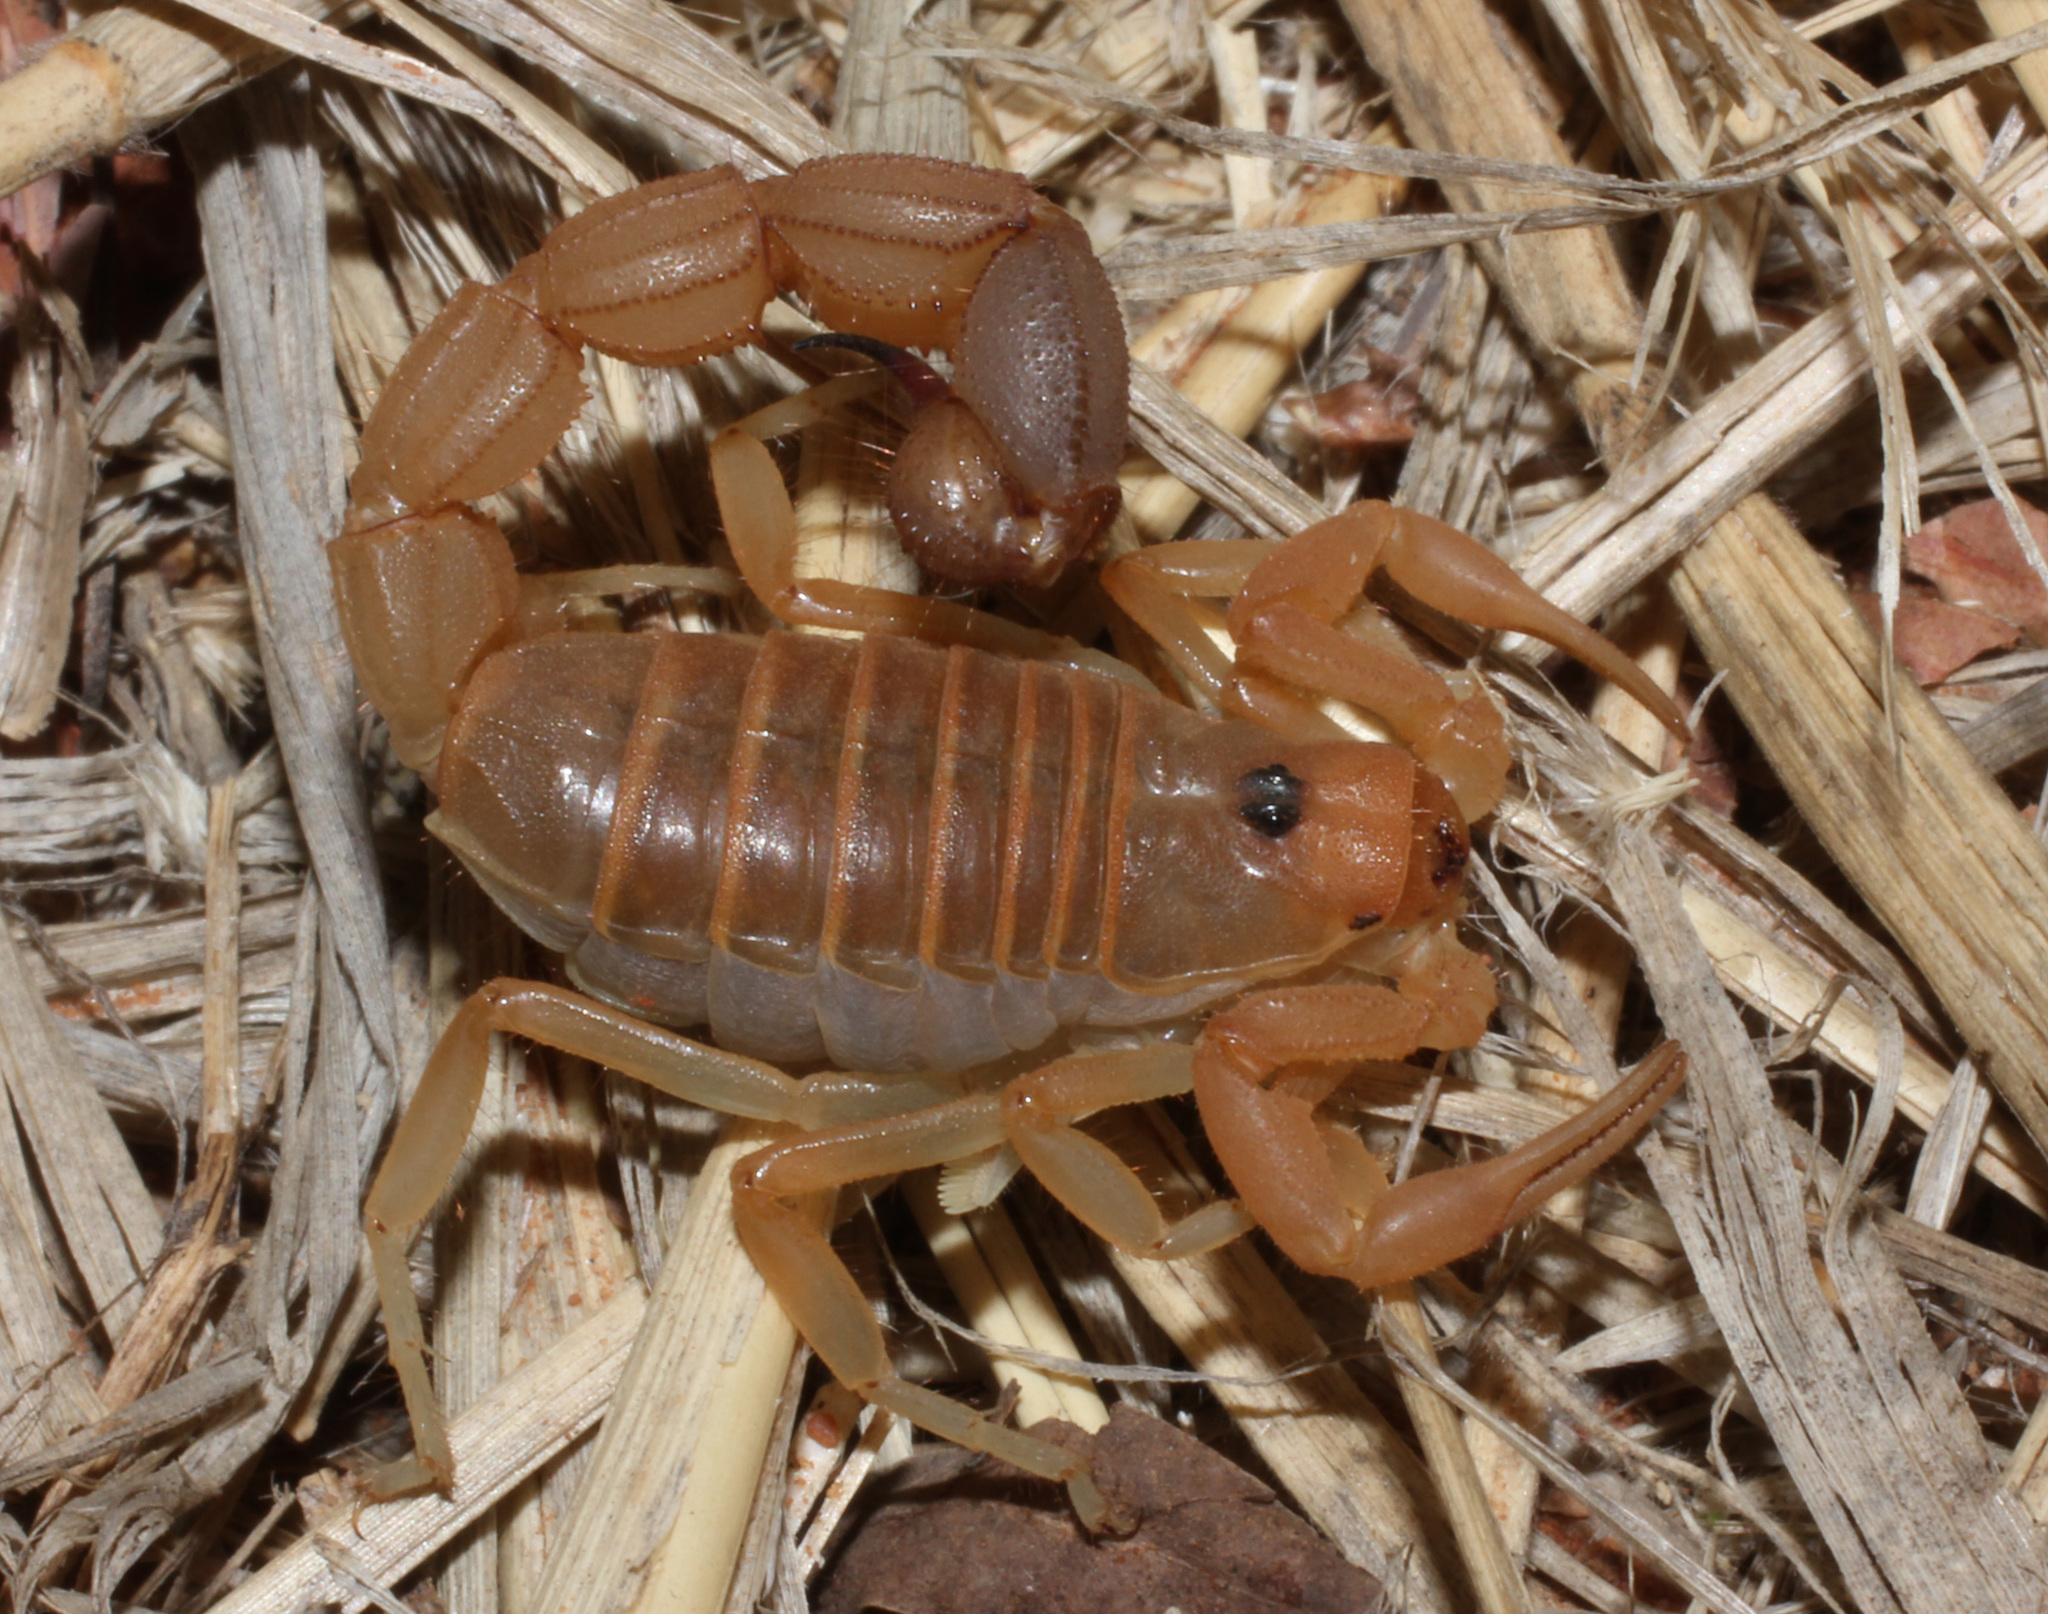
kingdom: Animalia
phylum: Arthropoda
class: Arachnida
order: Scorpiones
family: Buthidae
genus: Parabuthus
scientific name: Parabuthus raudus
